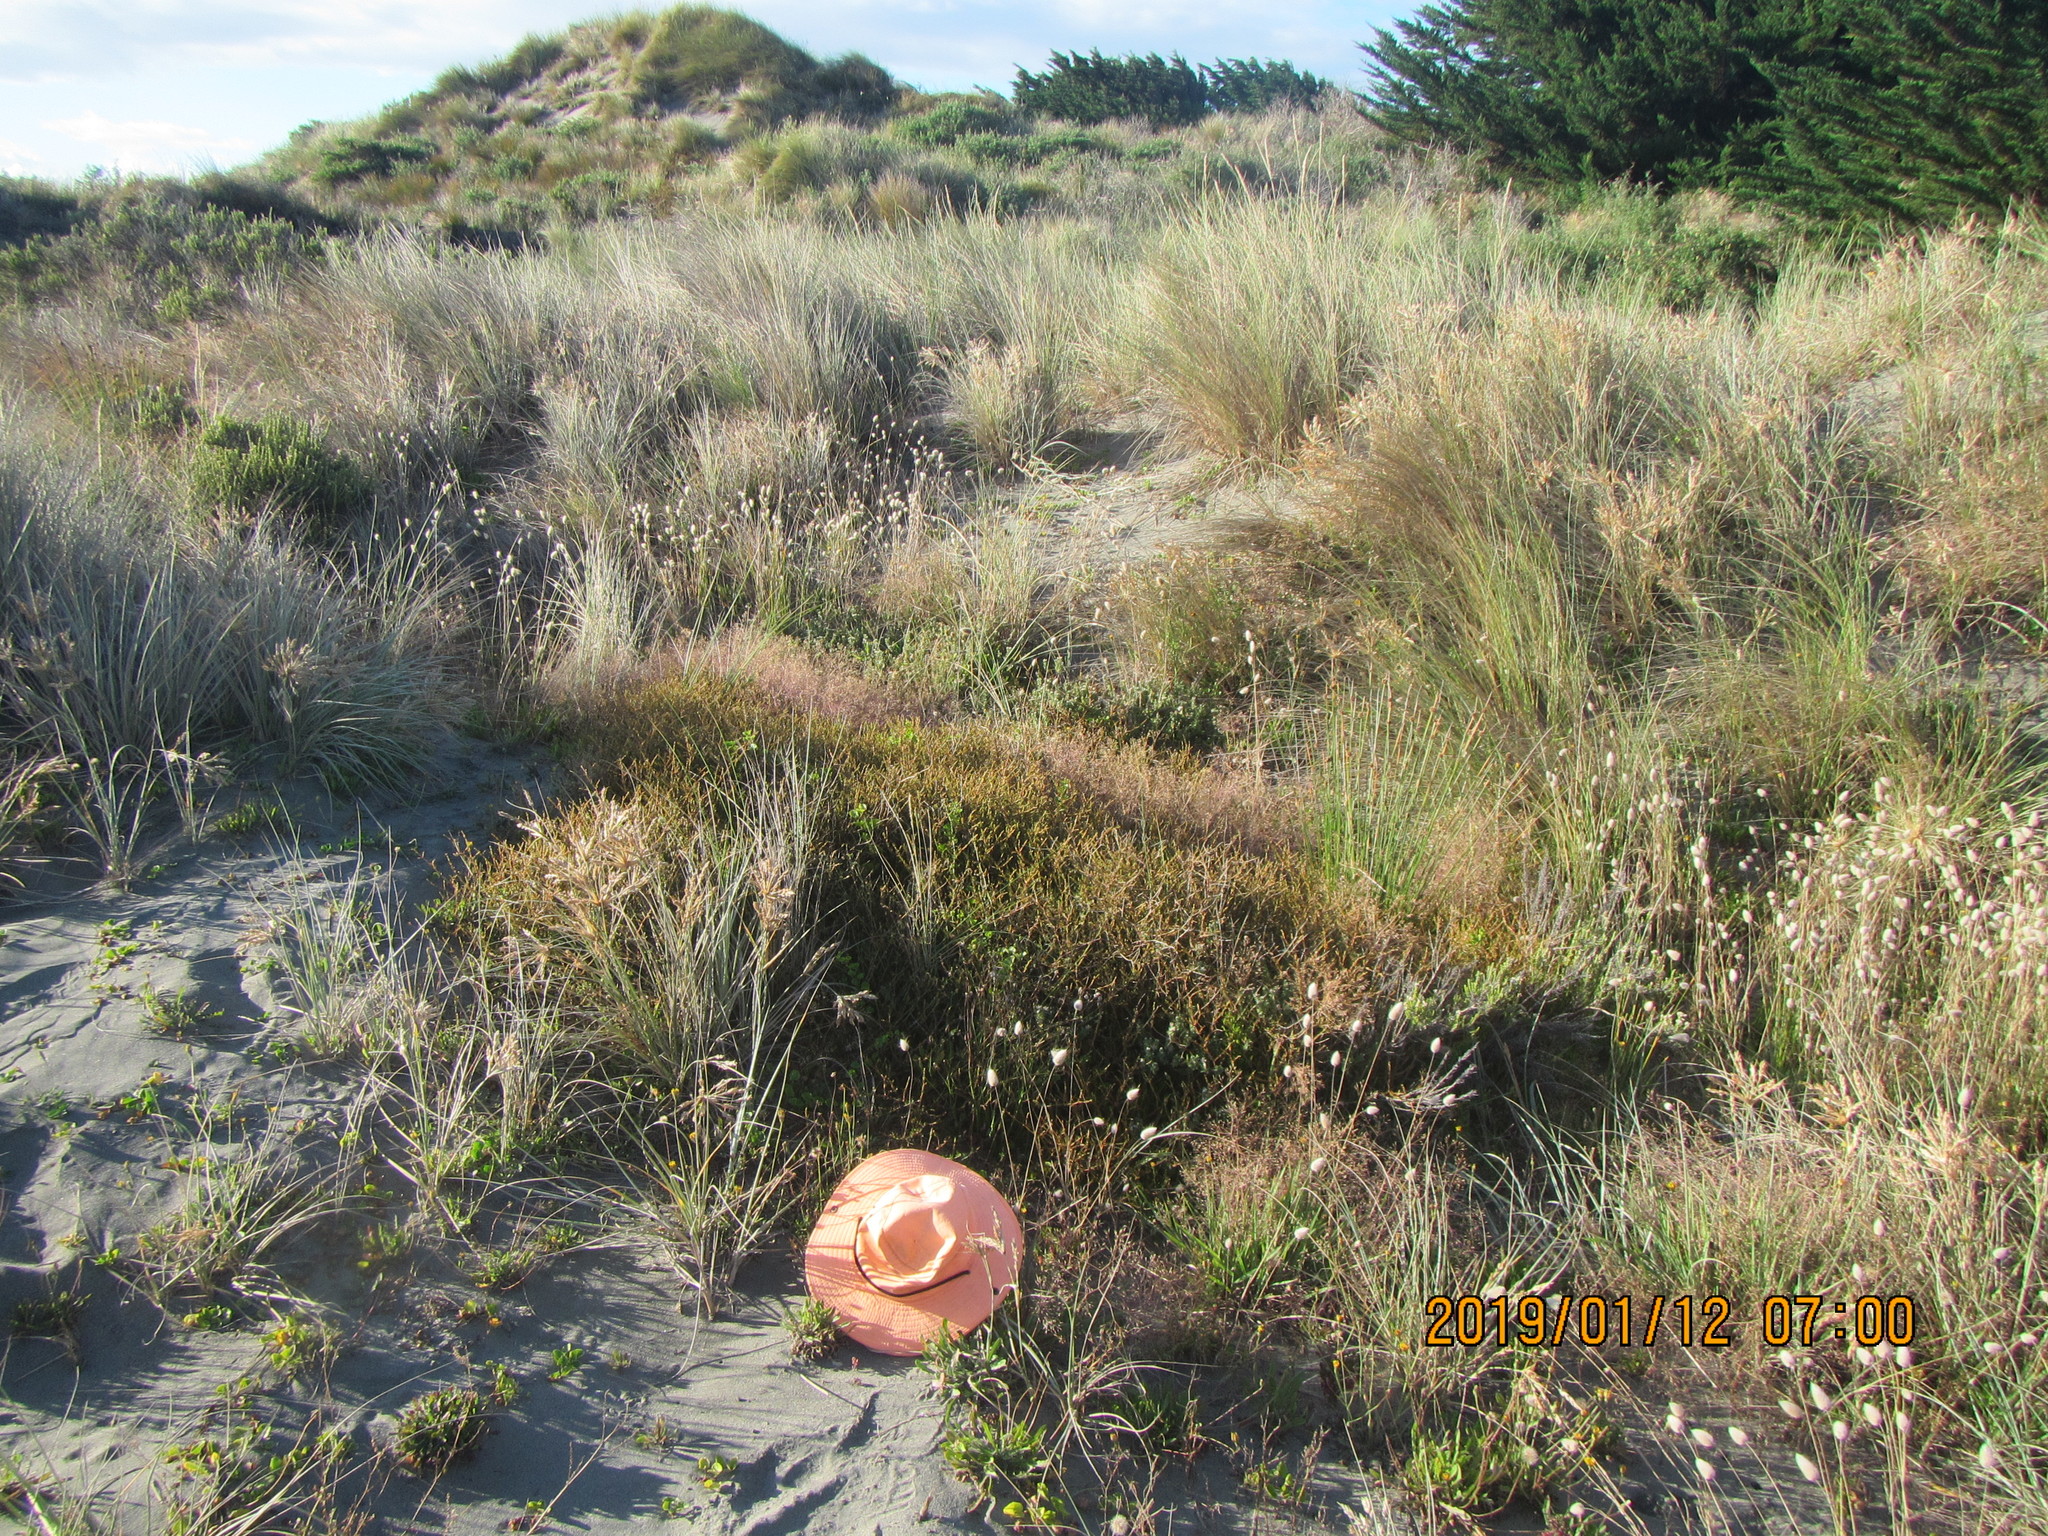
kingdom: Plantae
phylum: Tracheophyta
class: Liliopsida
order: Poales
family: Poaceae
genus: Lachnagrostis
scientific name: Lachnagrostis billardierei
